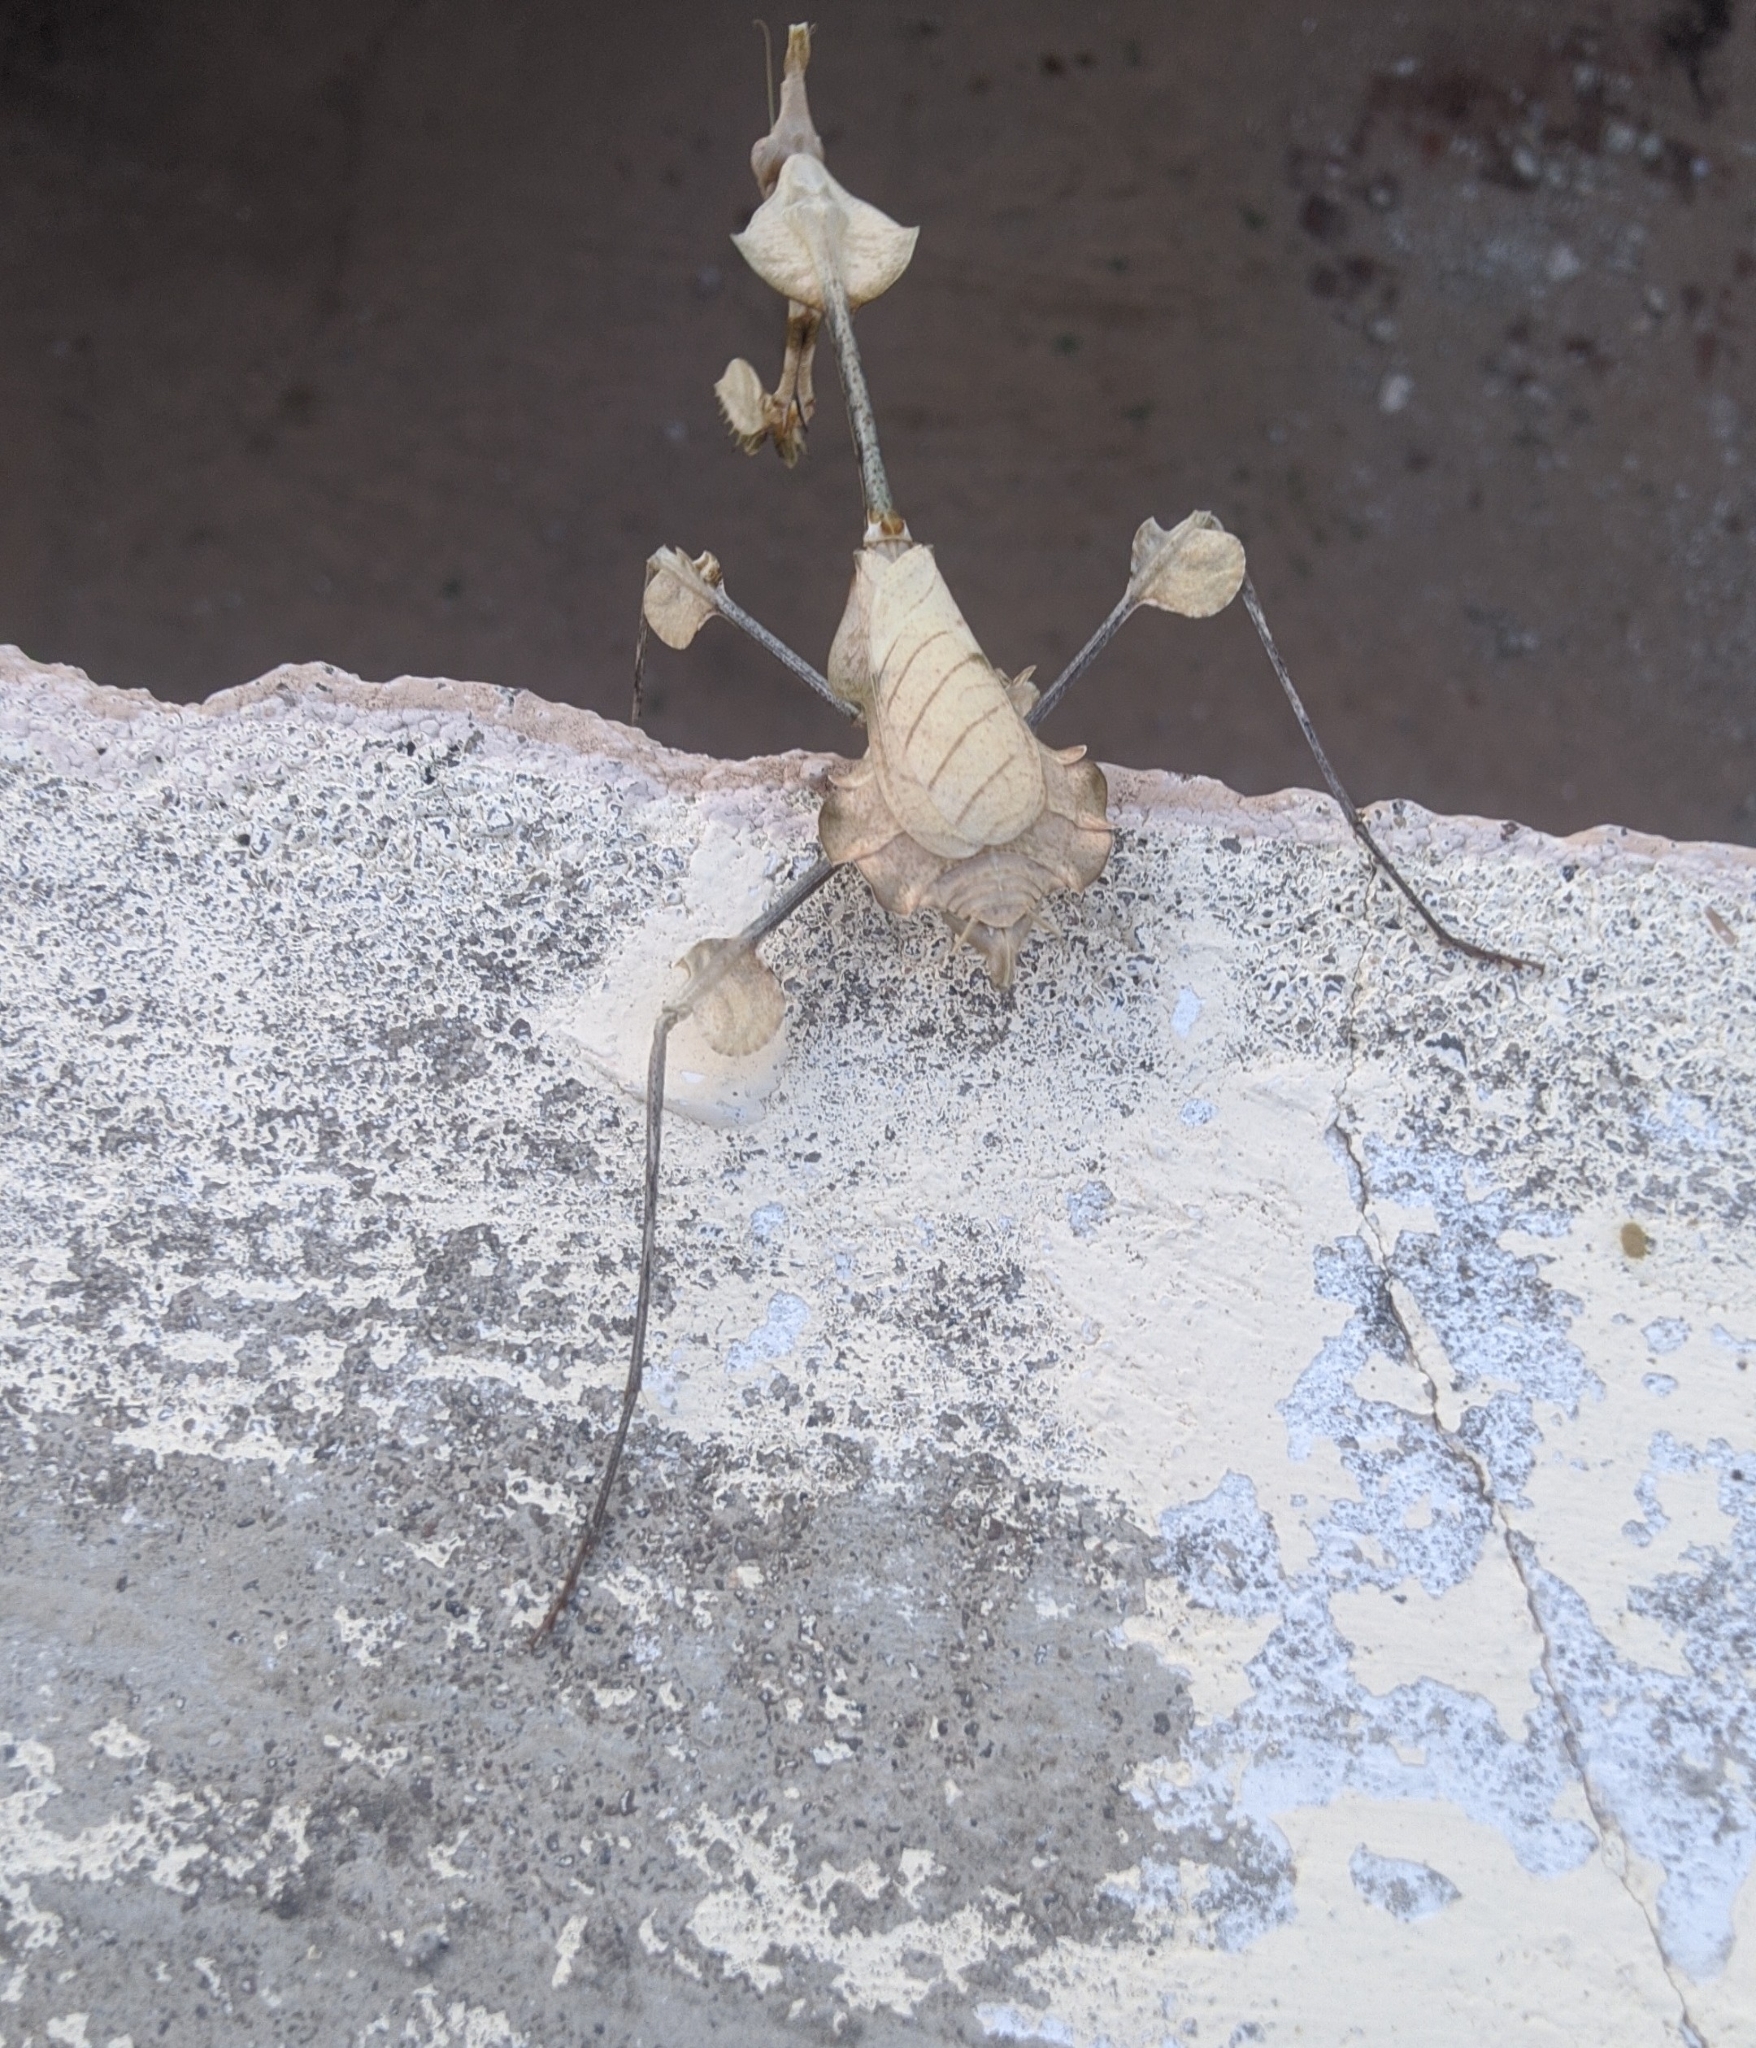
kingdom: Animalia
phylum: Arthropoda
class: Insecta
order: Mantodea
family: Empusidae
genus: Gongylus
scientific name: Gongylus gongylodes
